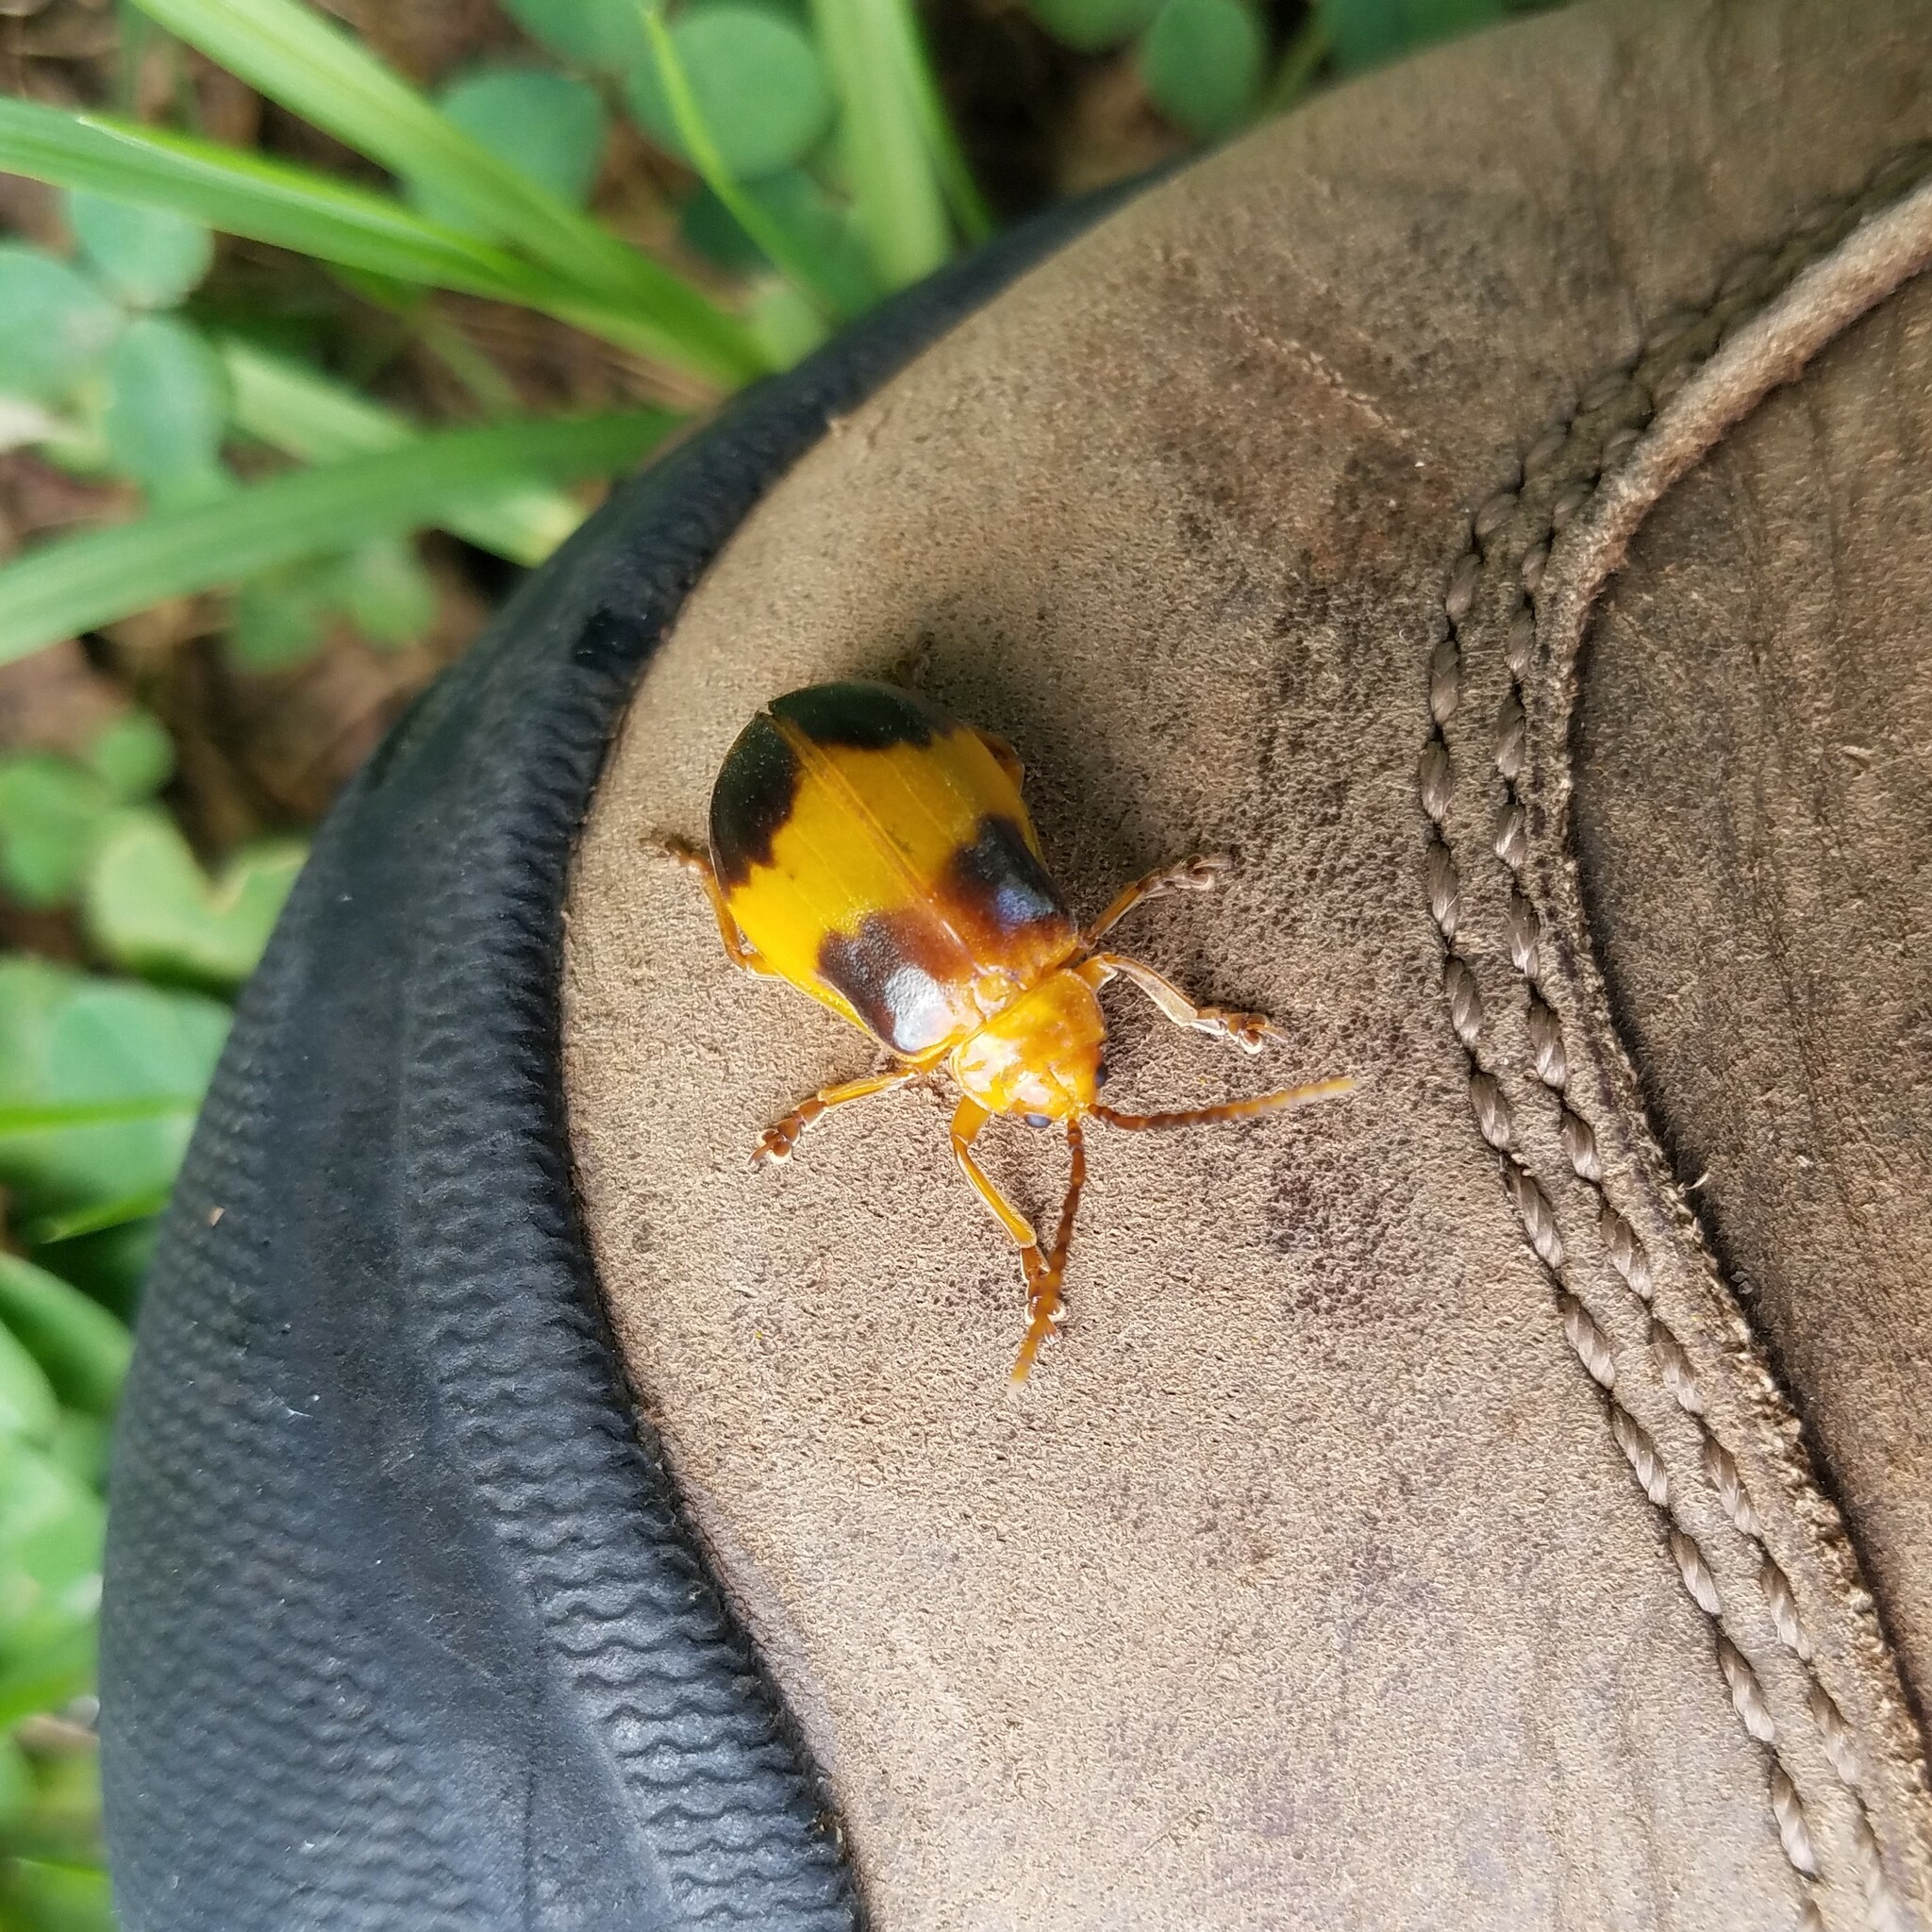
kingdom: Animalia
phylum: Arthropoda
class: Insecta
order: Coleoptera
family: Chrysomelidae
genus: Monocesta
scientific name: Monocesta coryli
